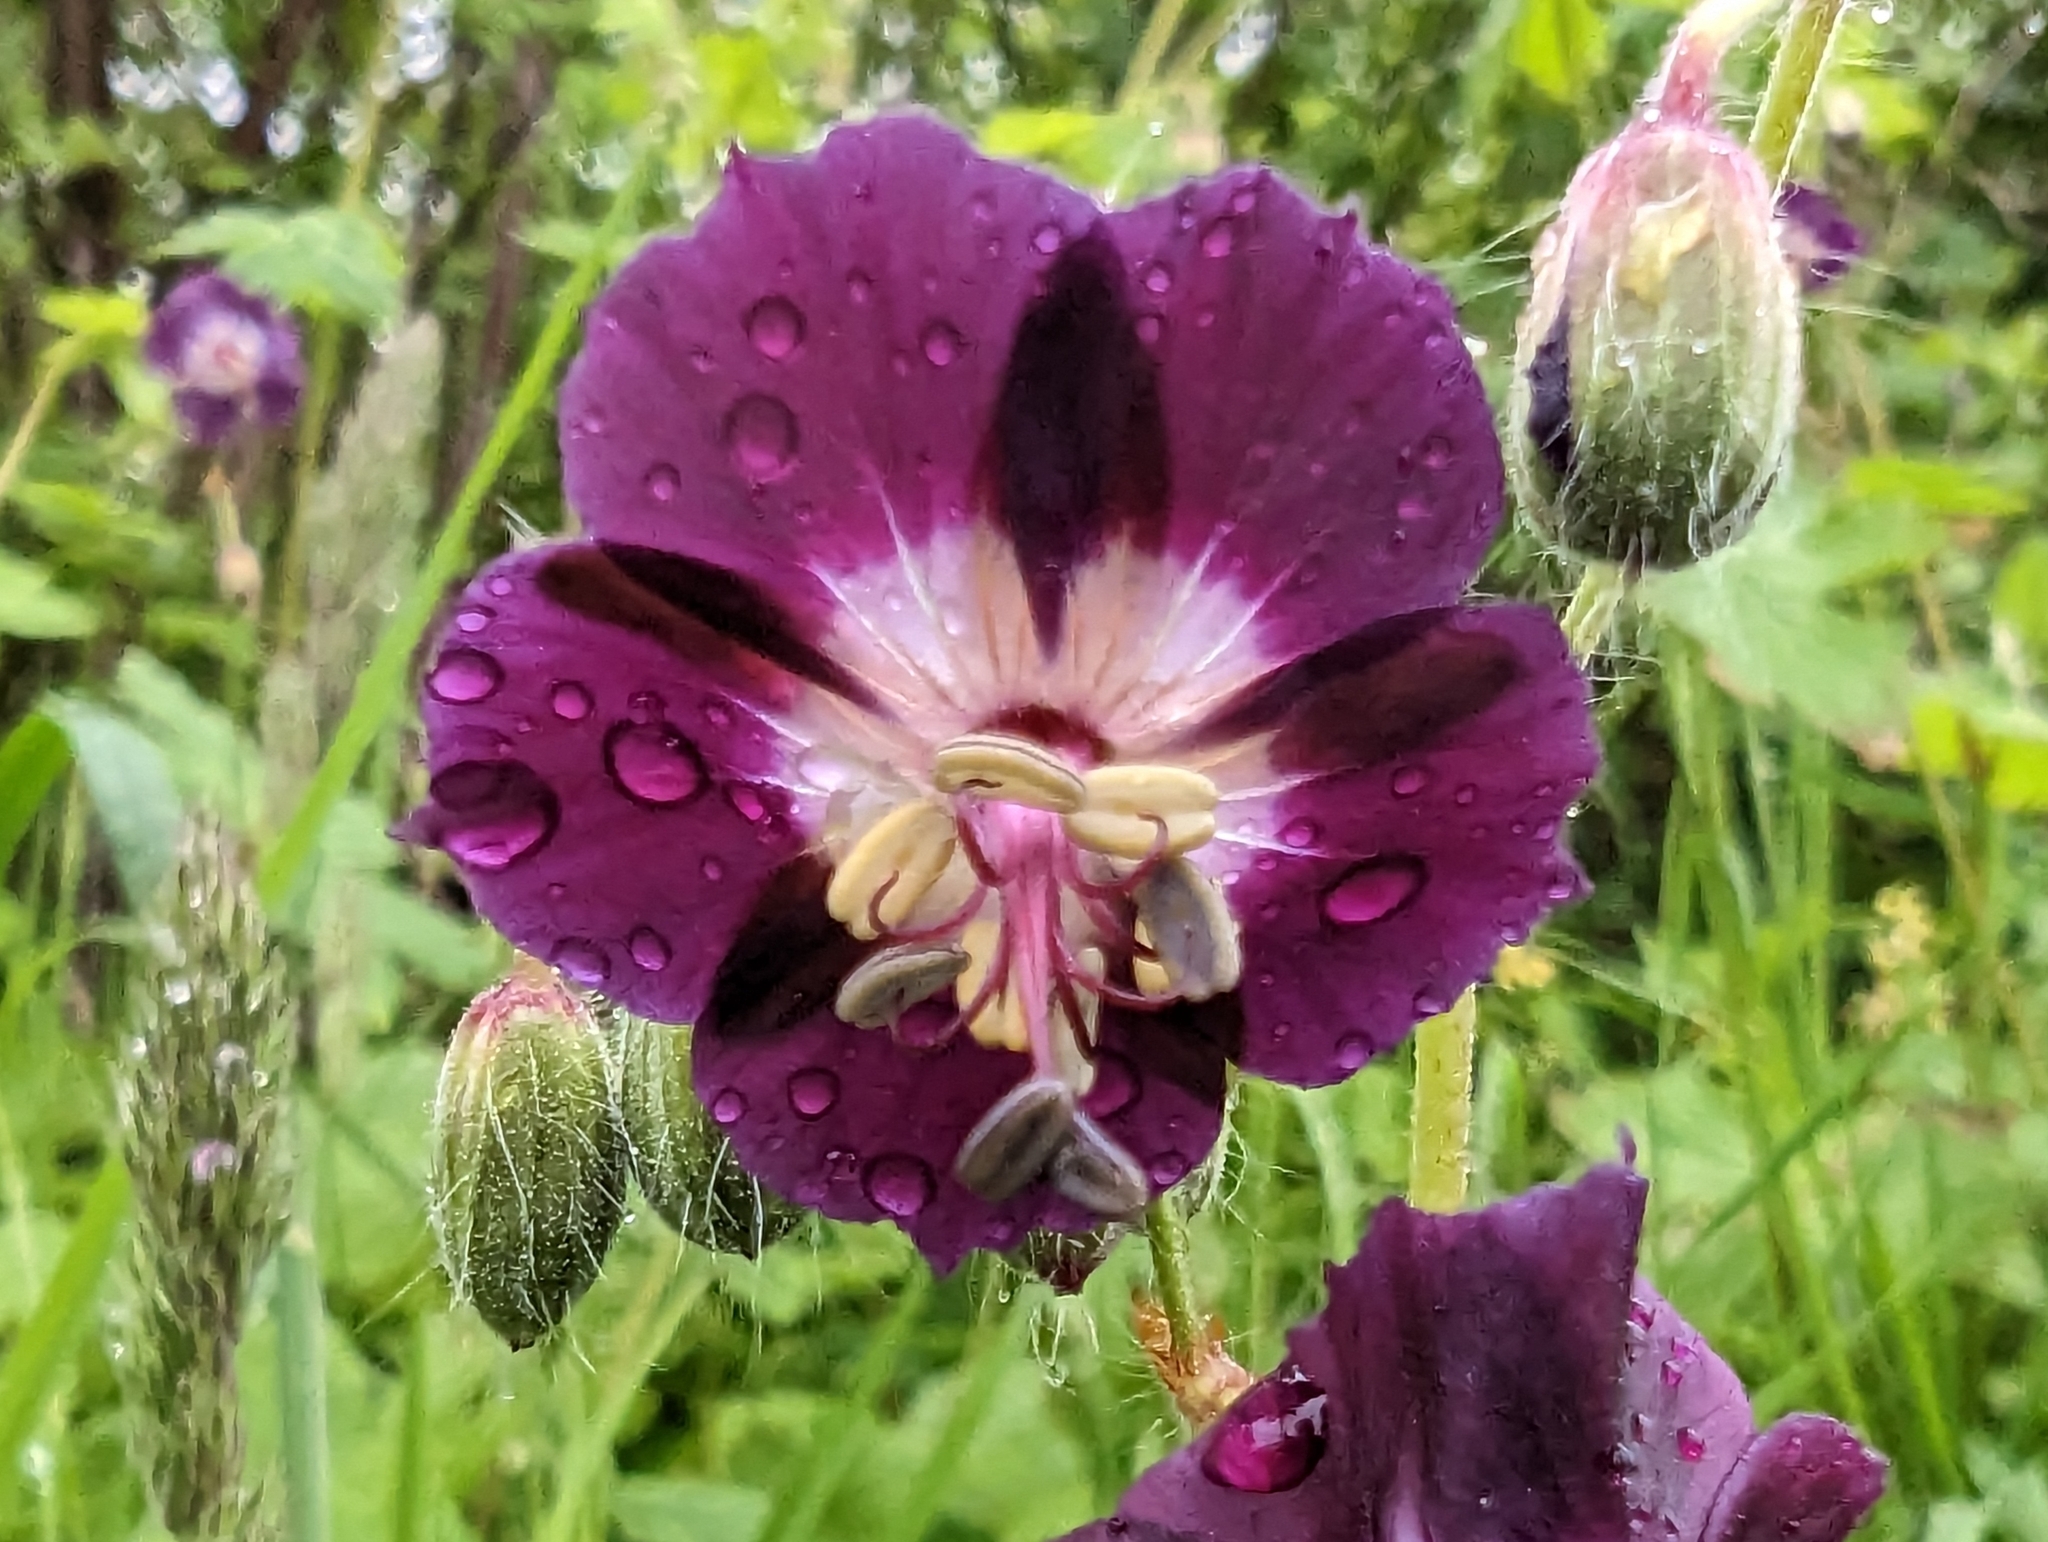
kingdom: Plantae
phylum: Tracheophyta
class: Magnoliopsida
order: Geraniales
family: Geraniaceae
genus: Geranium
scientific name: Geranium phaeum
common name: Dusky crane's-bill
